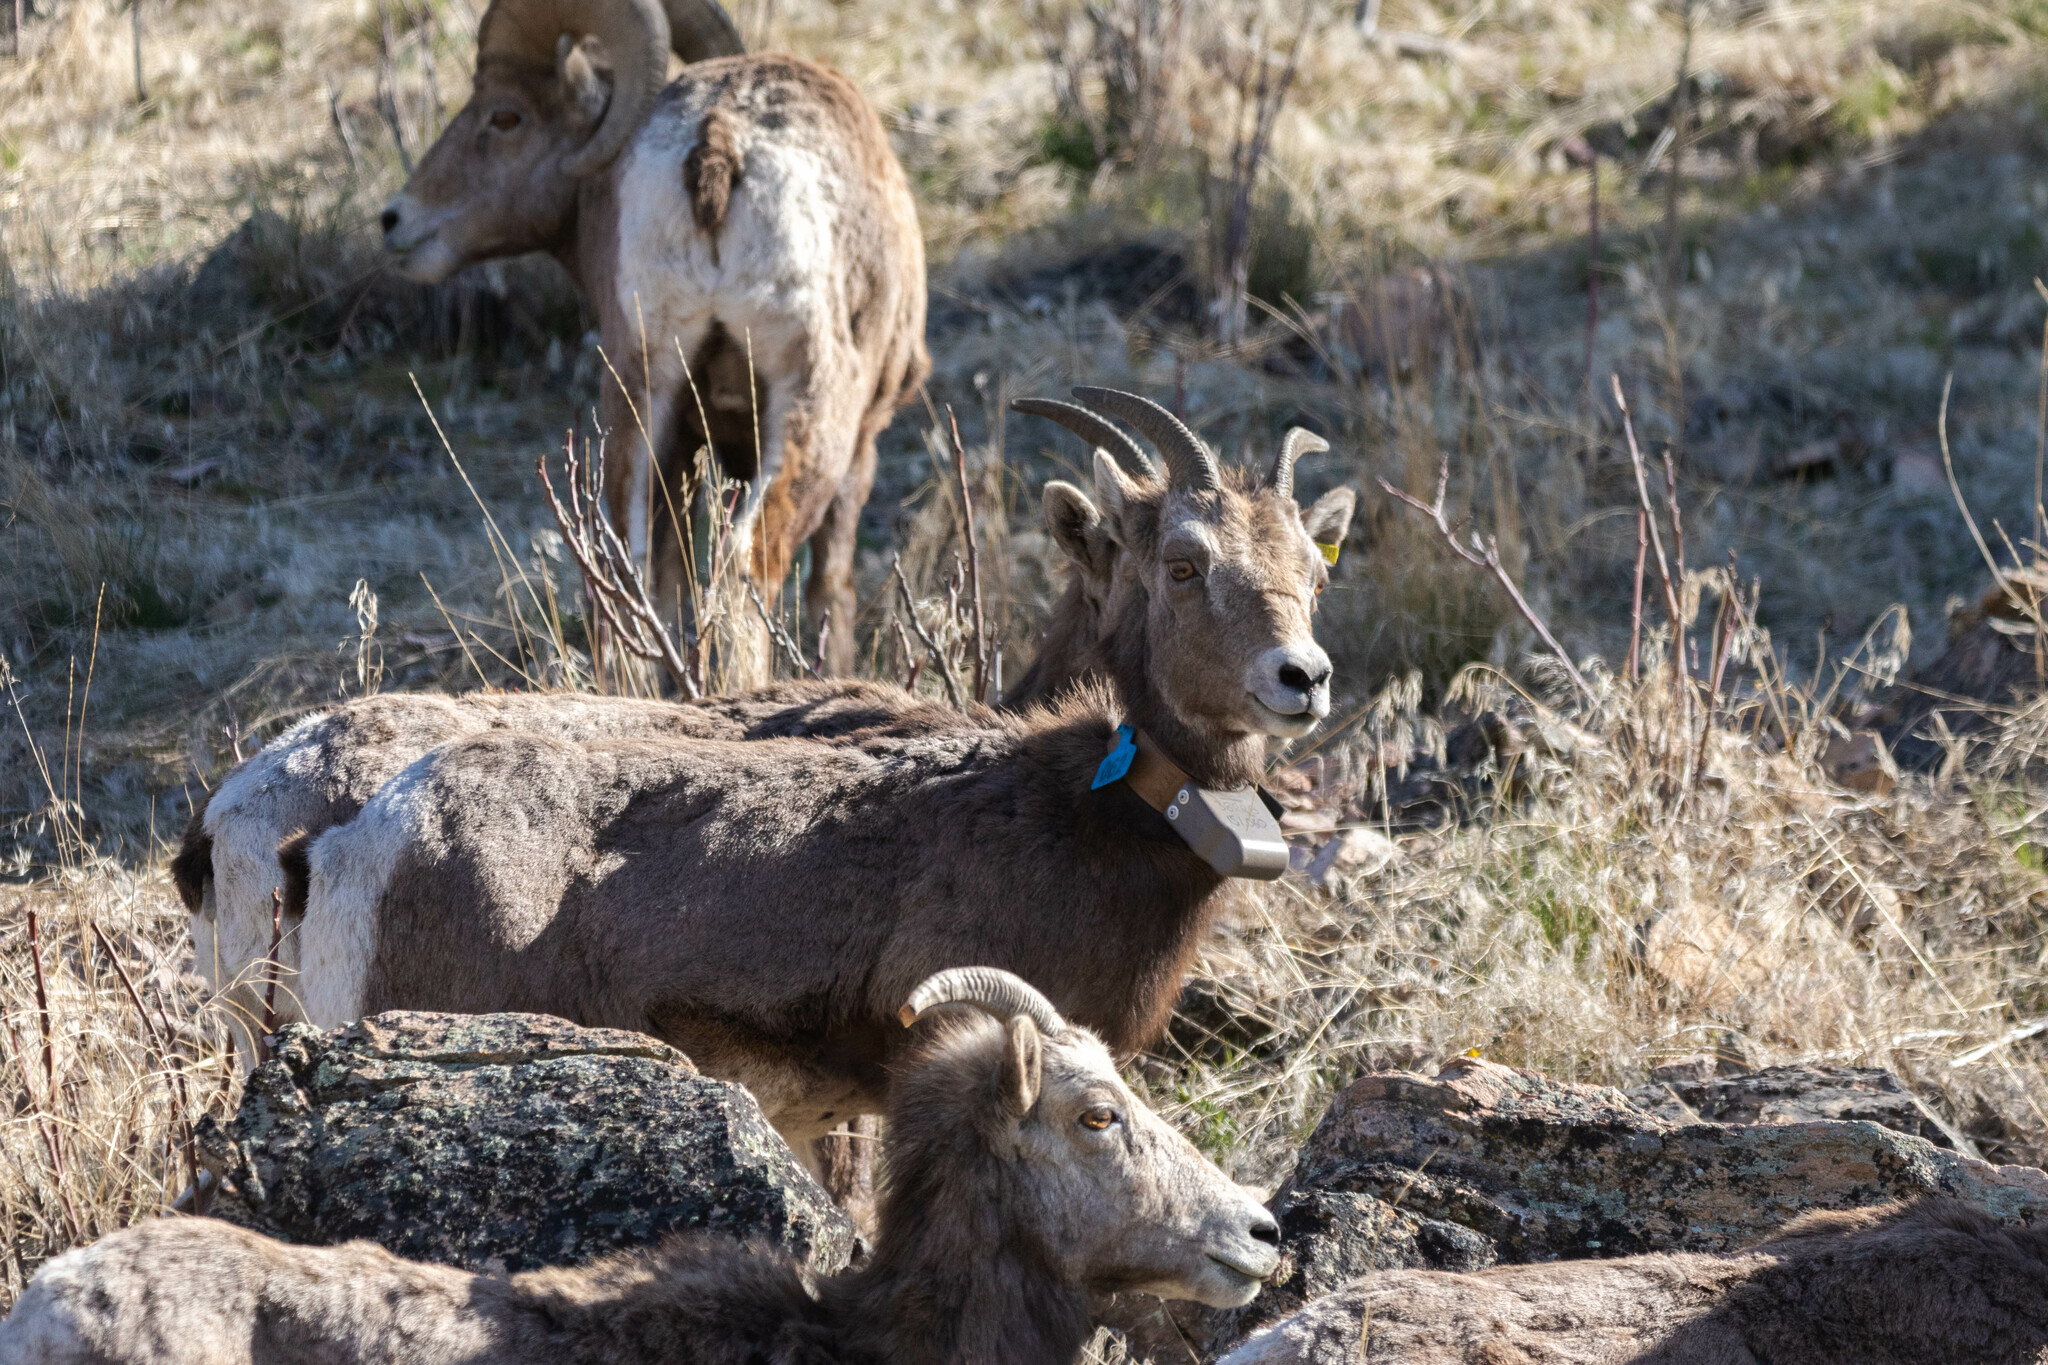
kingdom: Animalia
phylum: Chordata
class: Mammalia
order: Artiodactyla
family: Bovidae
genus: Ovis
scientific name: Ovis canadensis
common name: Bighorn sheep
